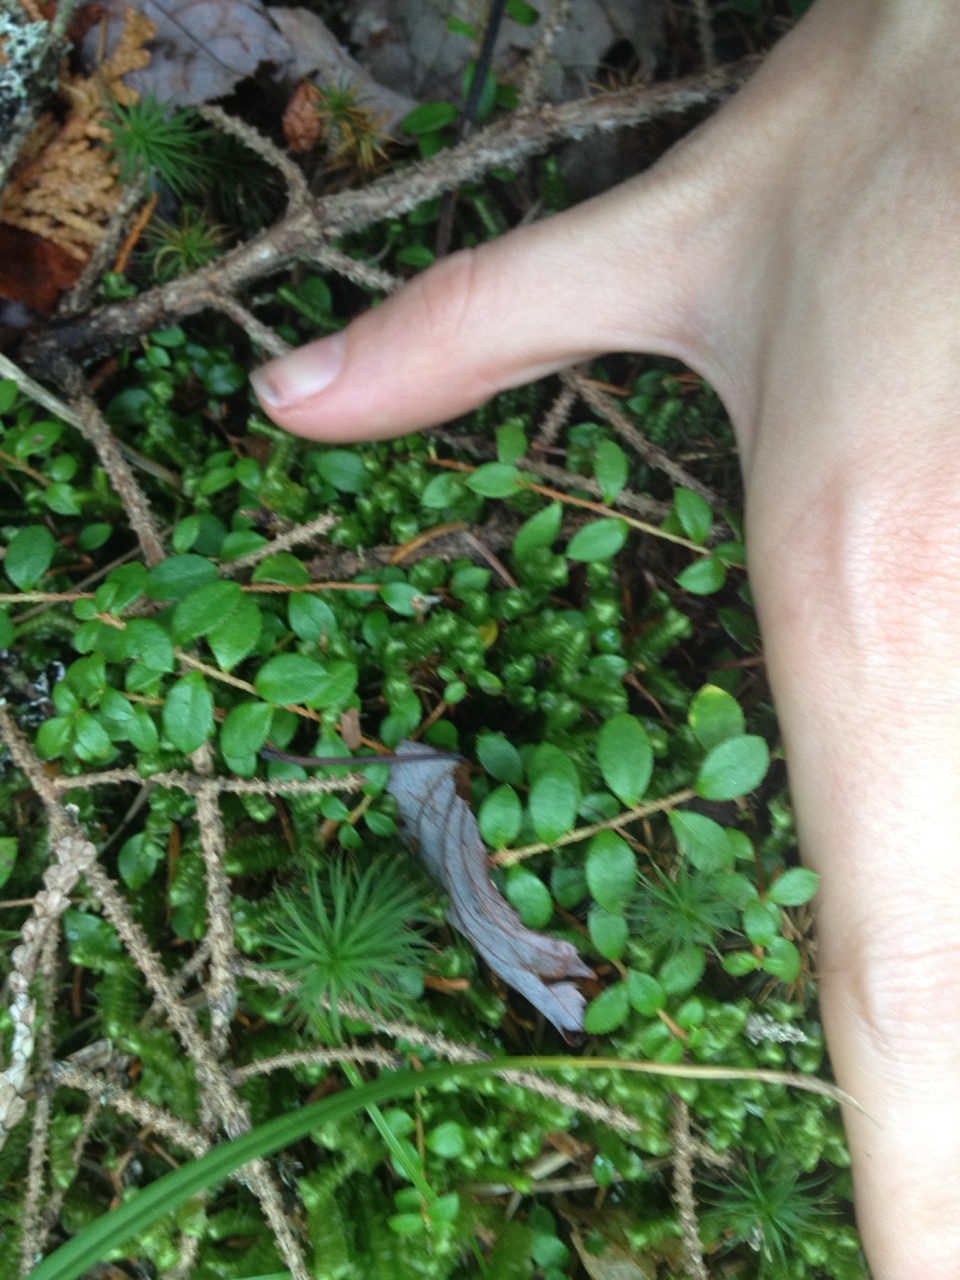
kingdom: Plantae
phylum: Tracheophyta
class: Magnoliopsida
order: Ericales
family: Ericaceae
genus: Gaultheria
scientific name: Gaultheria hispidula
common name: Cancer wintergreen
